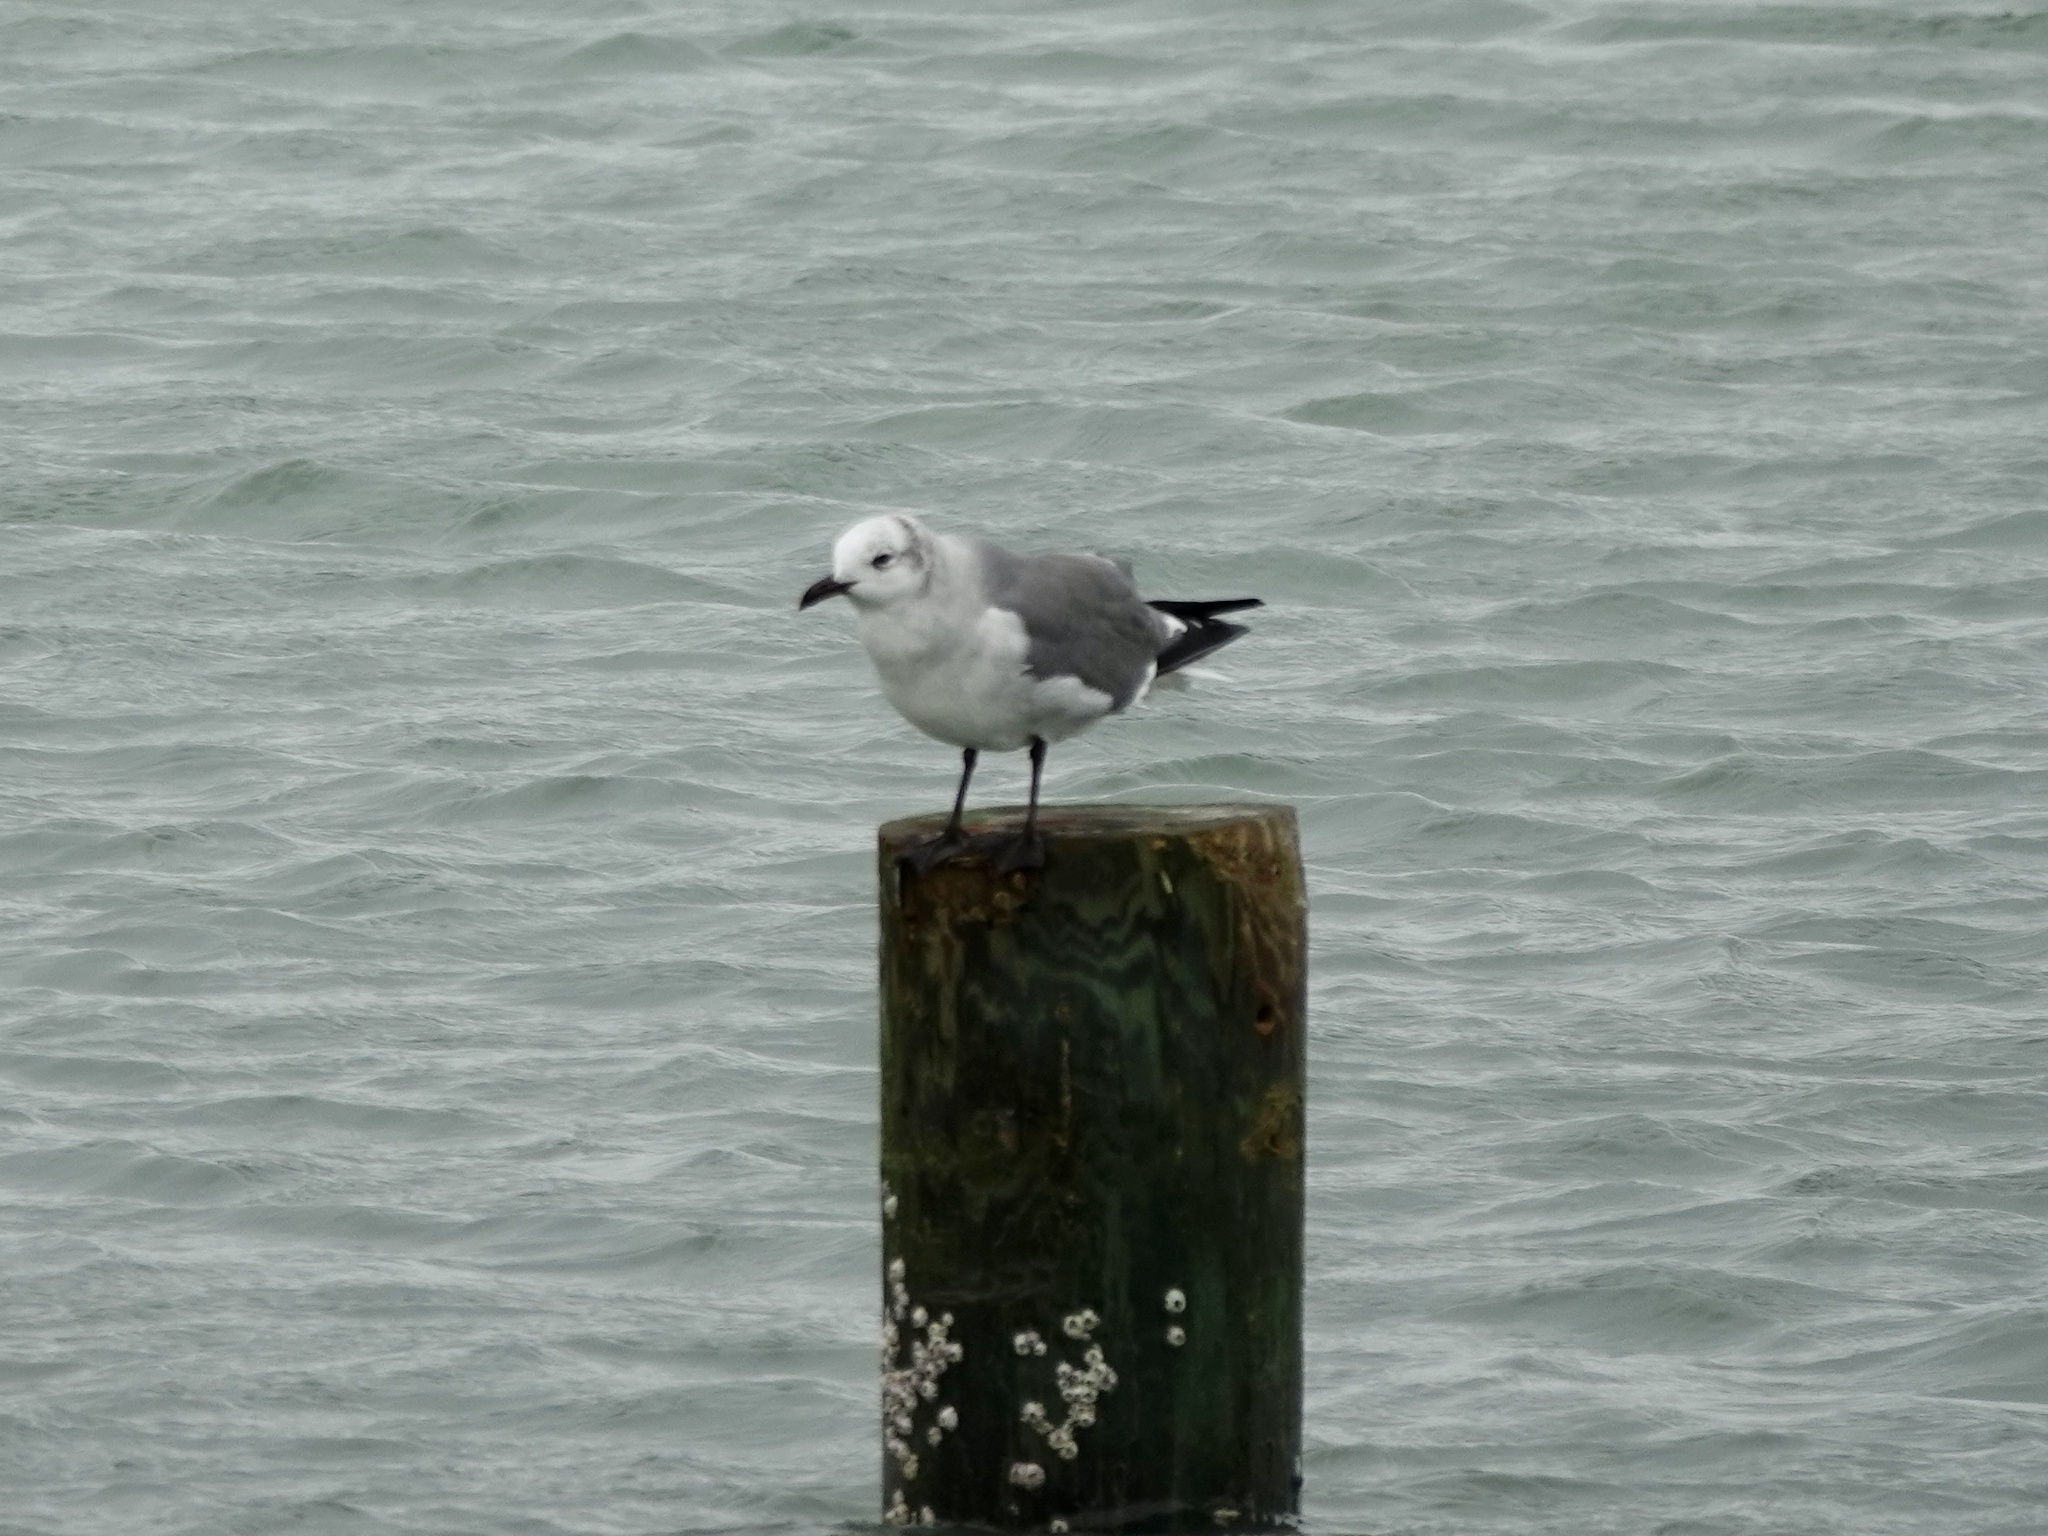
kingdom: Animalia
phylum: Chordata
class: Aves
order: Charadriiformes
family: Laridae
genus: Leucophaeus
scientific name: Leucophaeus atricilla
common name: Laughing gull
